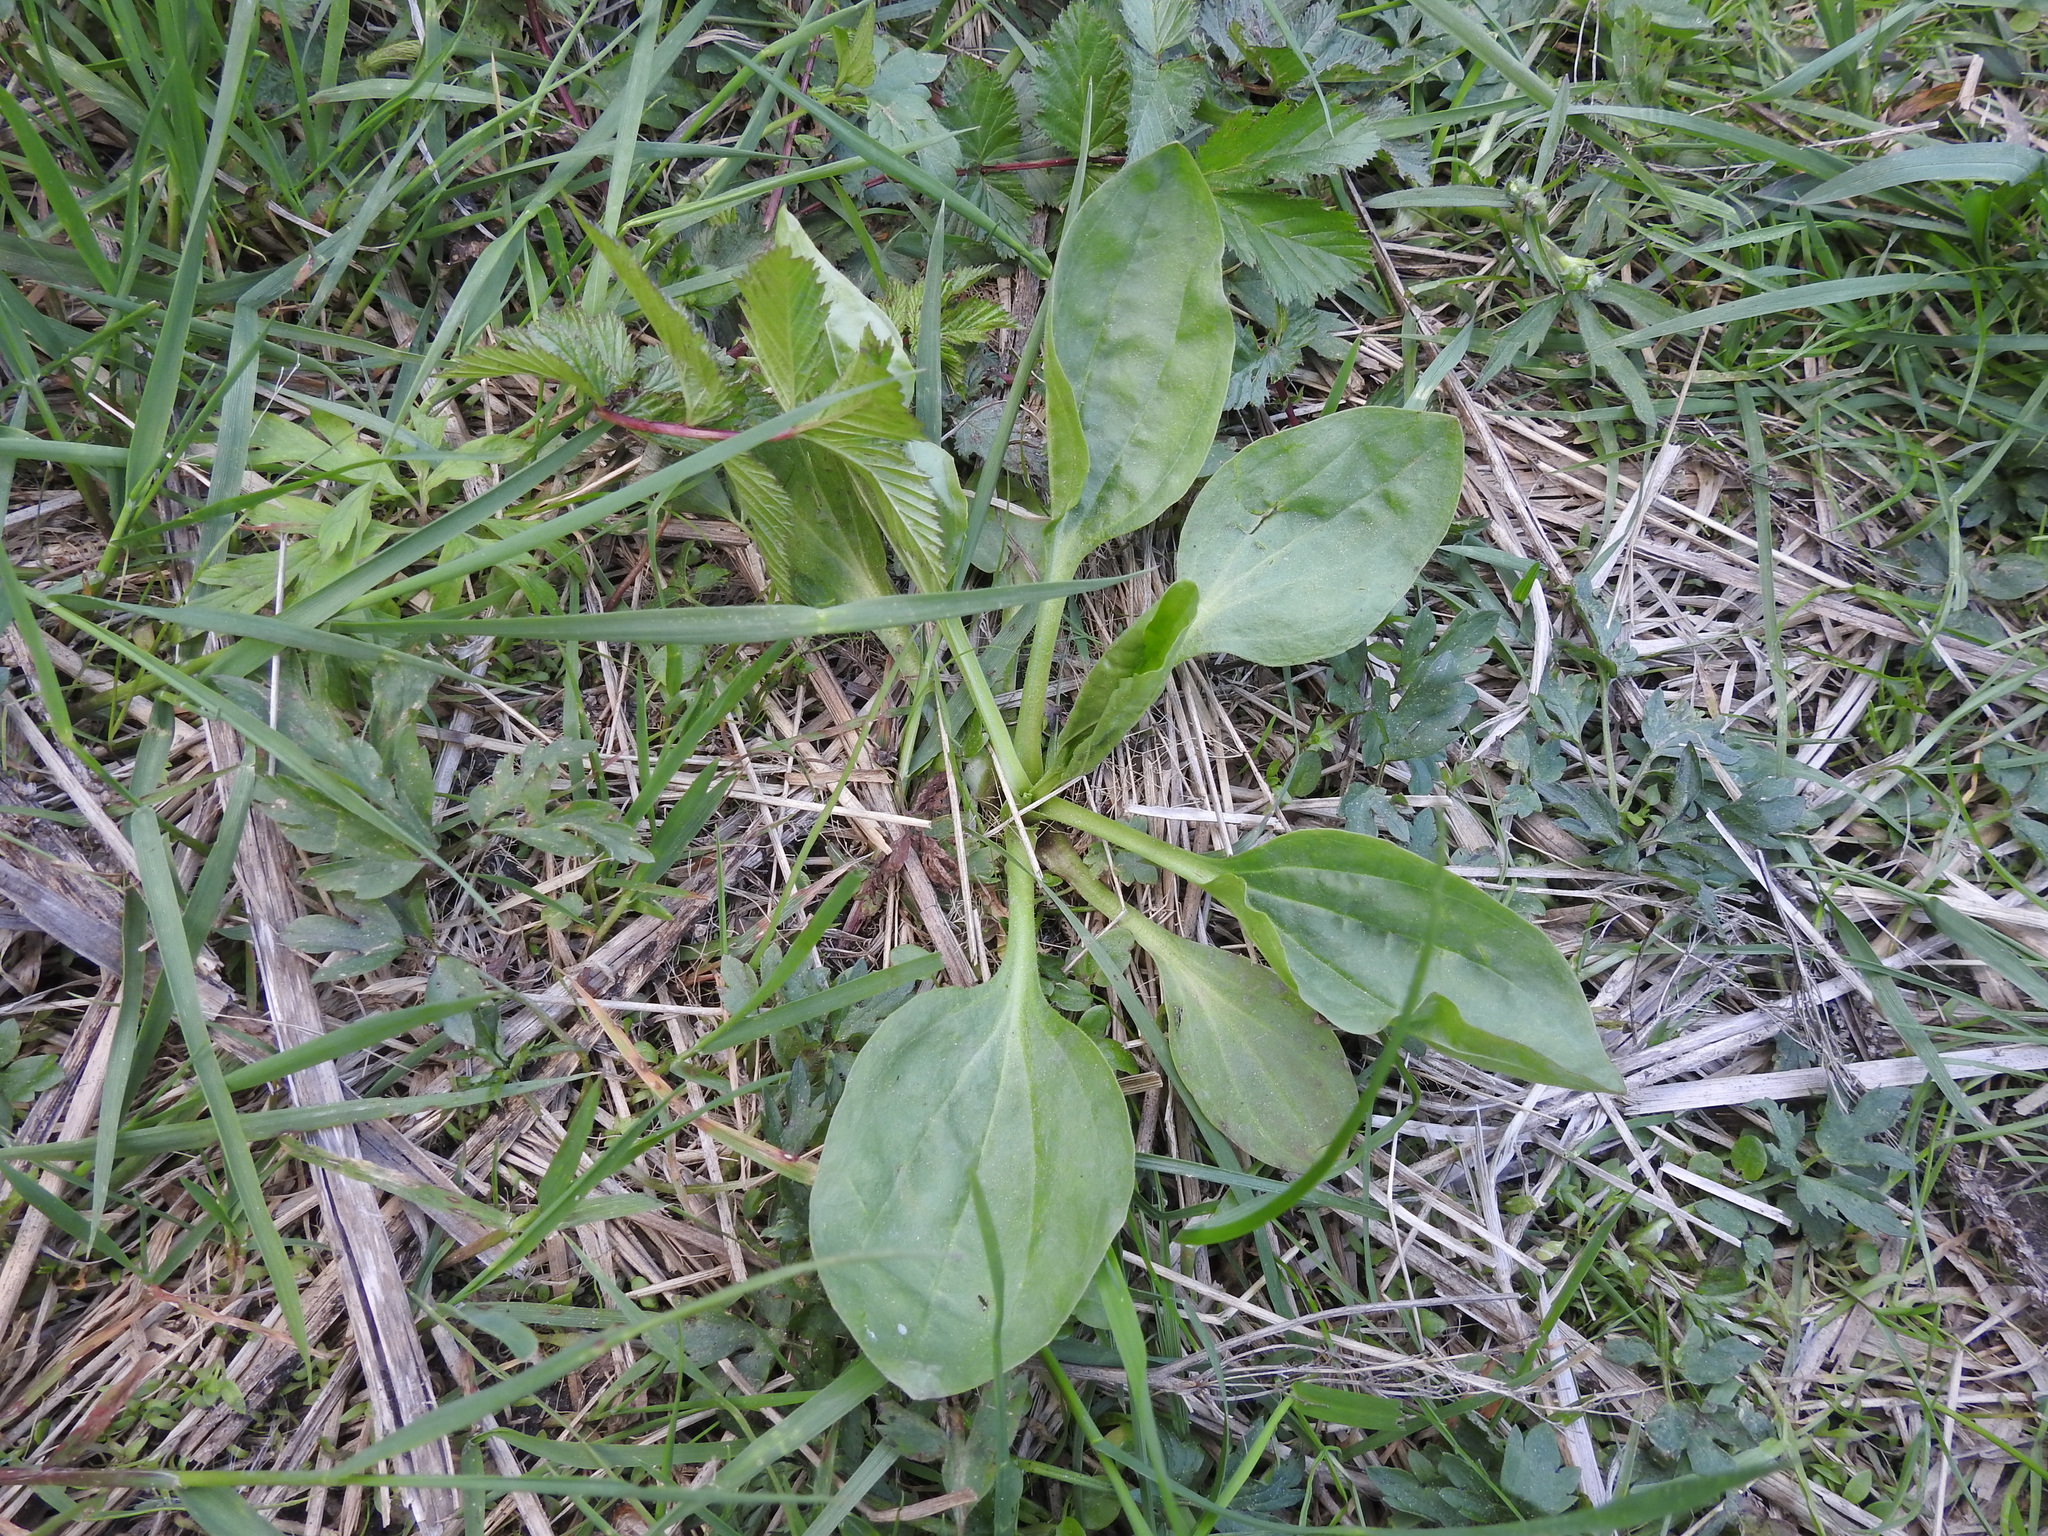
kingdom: Plantae
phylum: Tracheophyta
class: Magnoliopsida
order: Lamiales
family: Plantaginaceae
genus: Plantago
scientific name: Plantago major
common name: Common plantain
